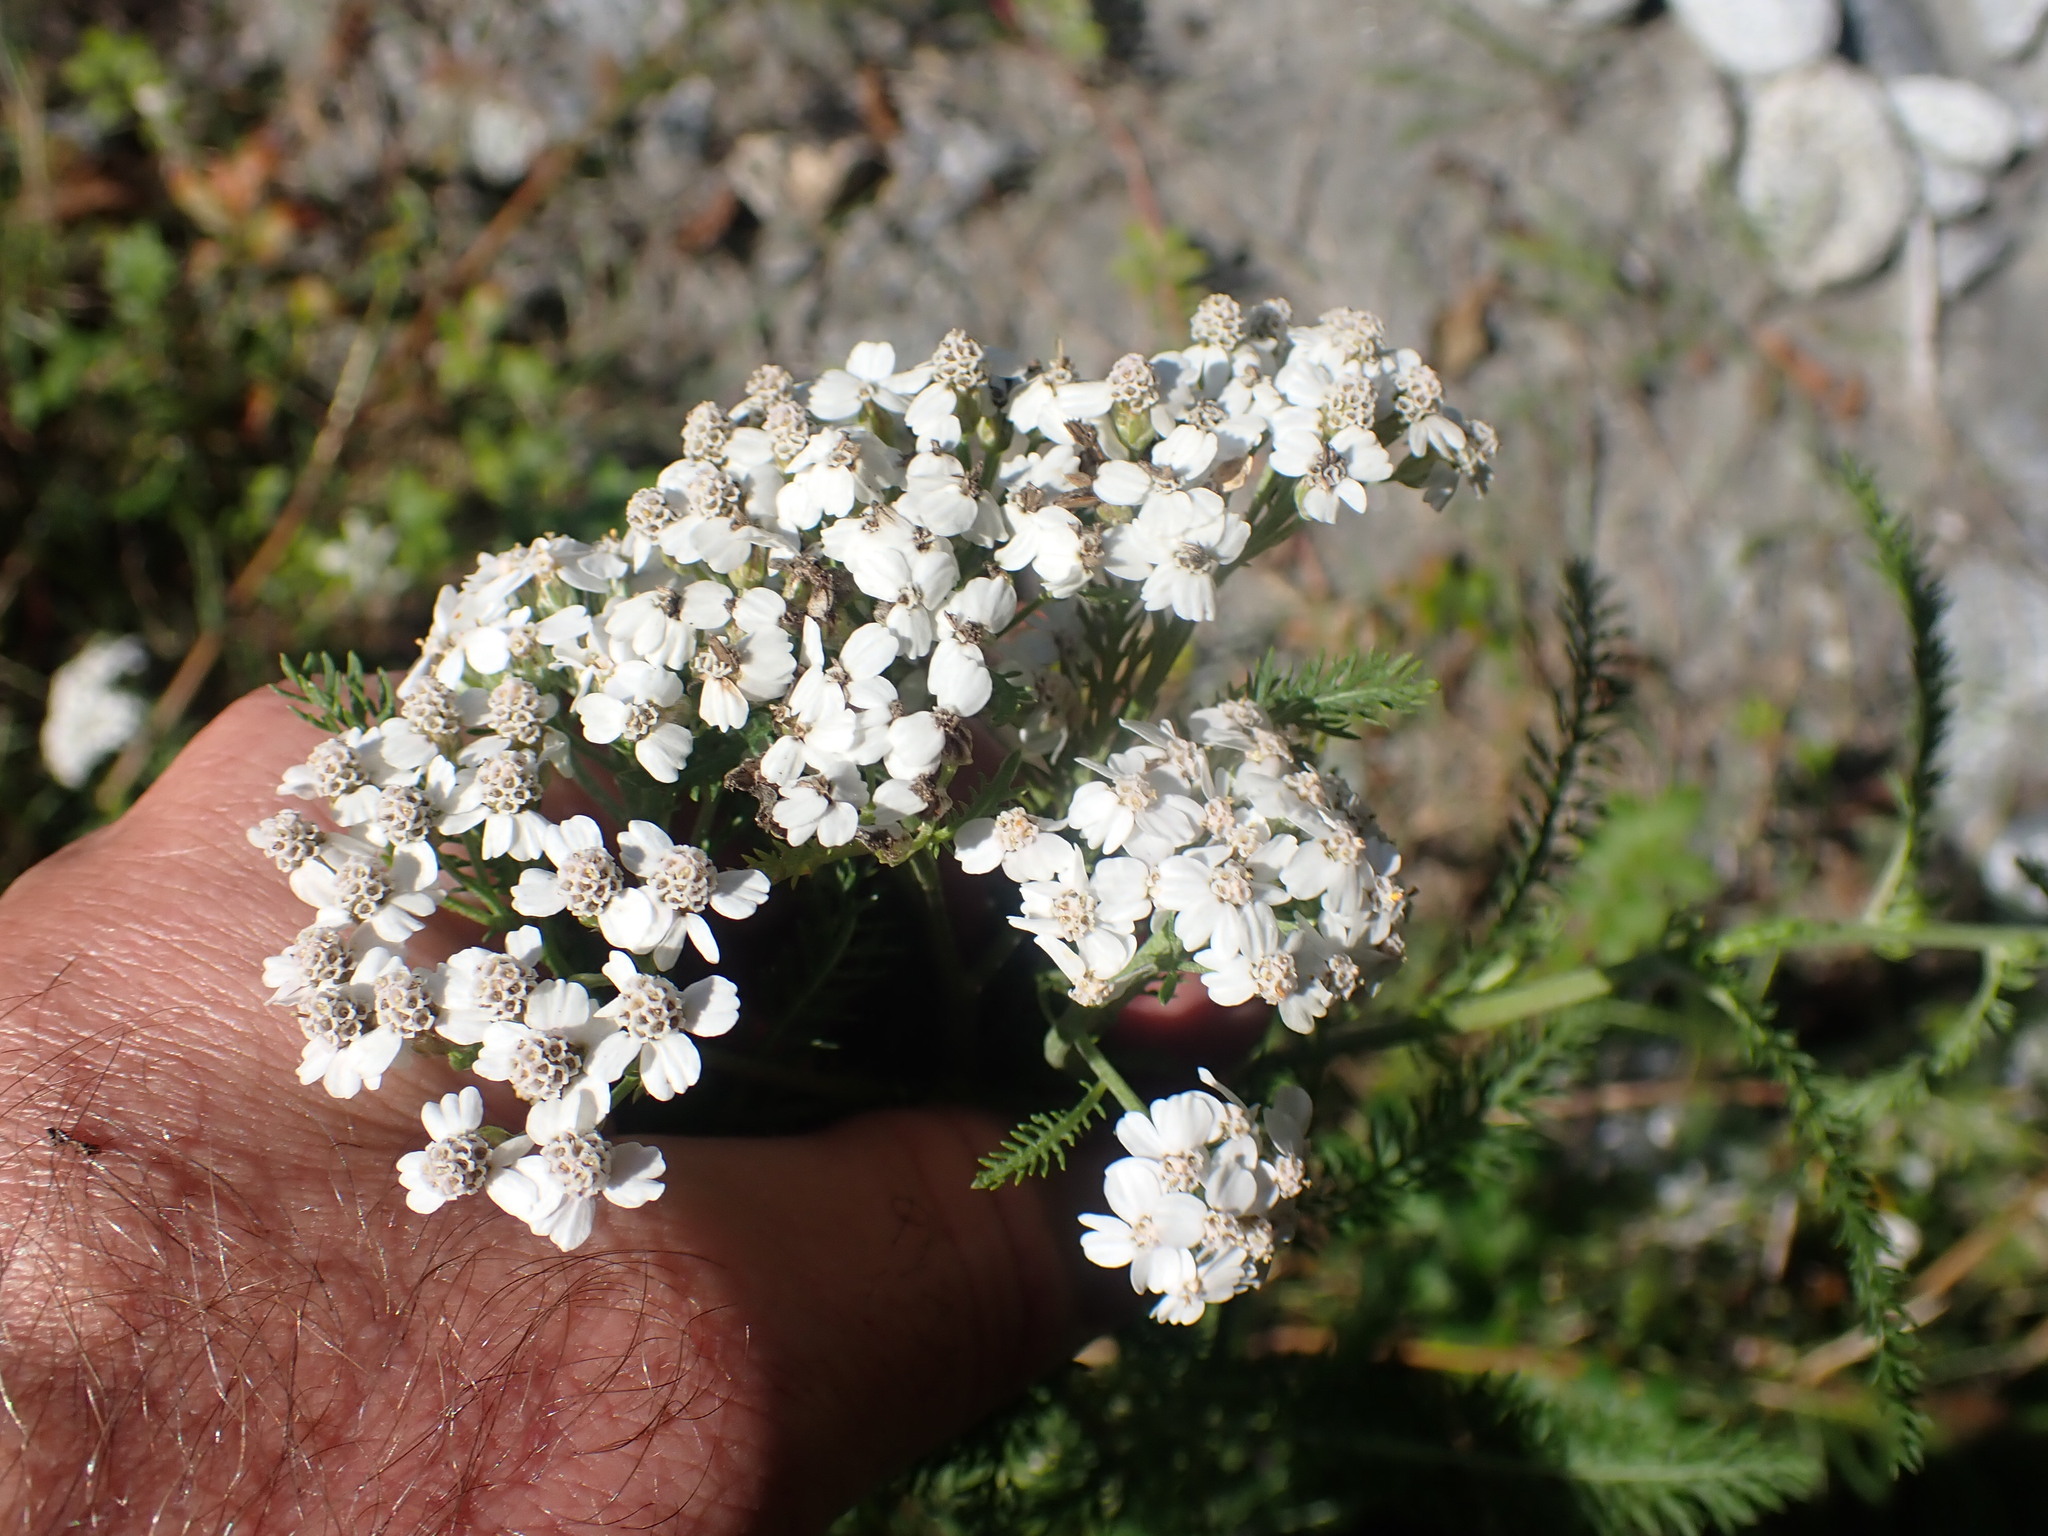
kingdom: Plantae
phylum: Tracheophyta
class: Magnoliopsida
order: Asterales
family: Asteraceae
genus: Achillea
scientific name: Achillea millefolium
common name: Yarrow
